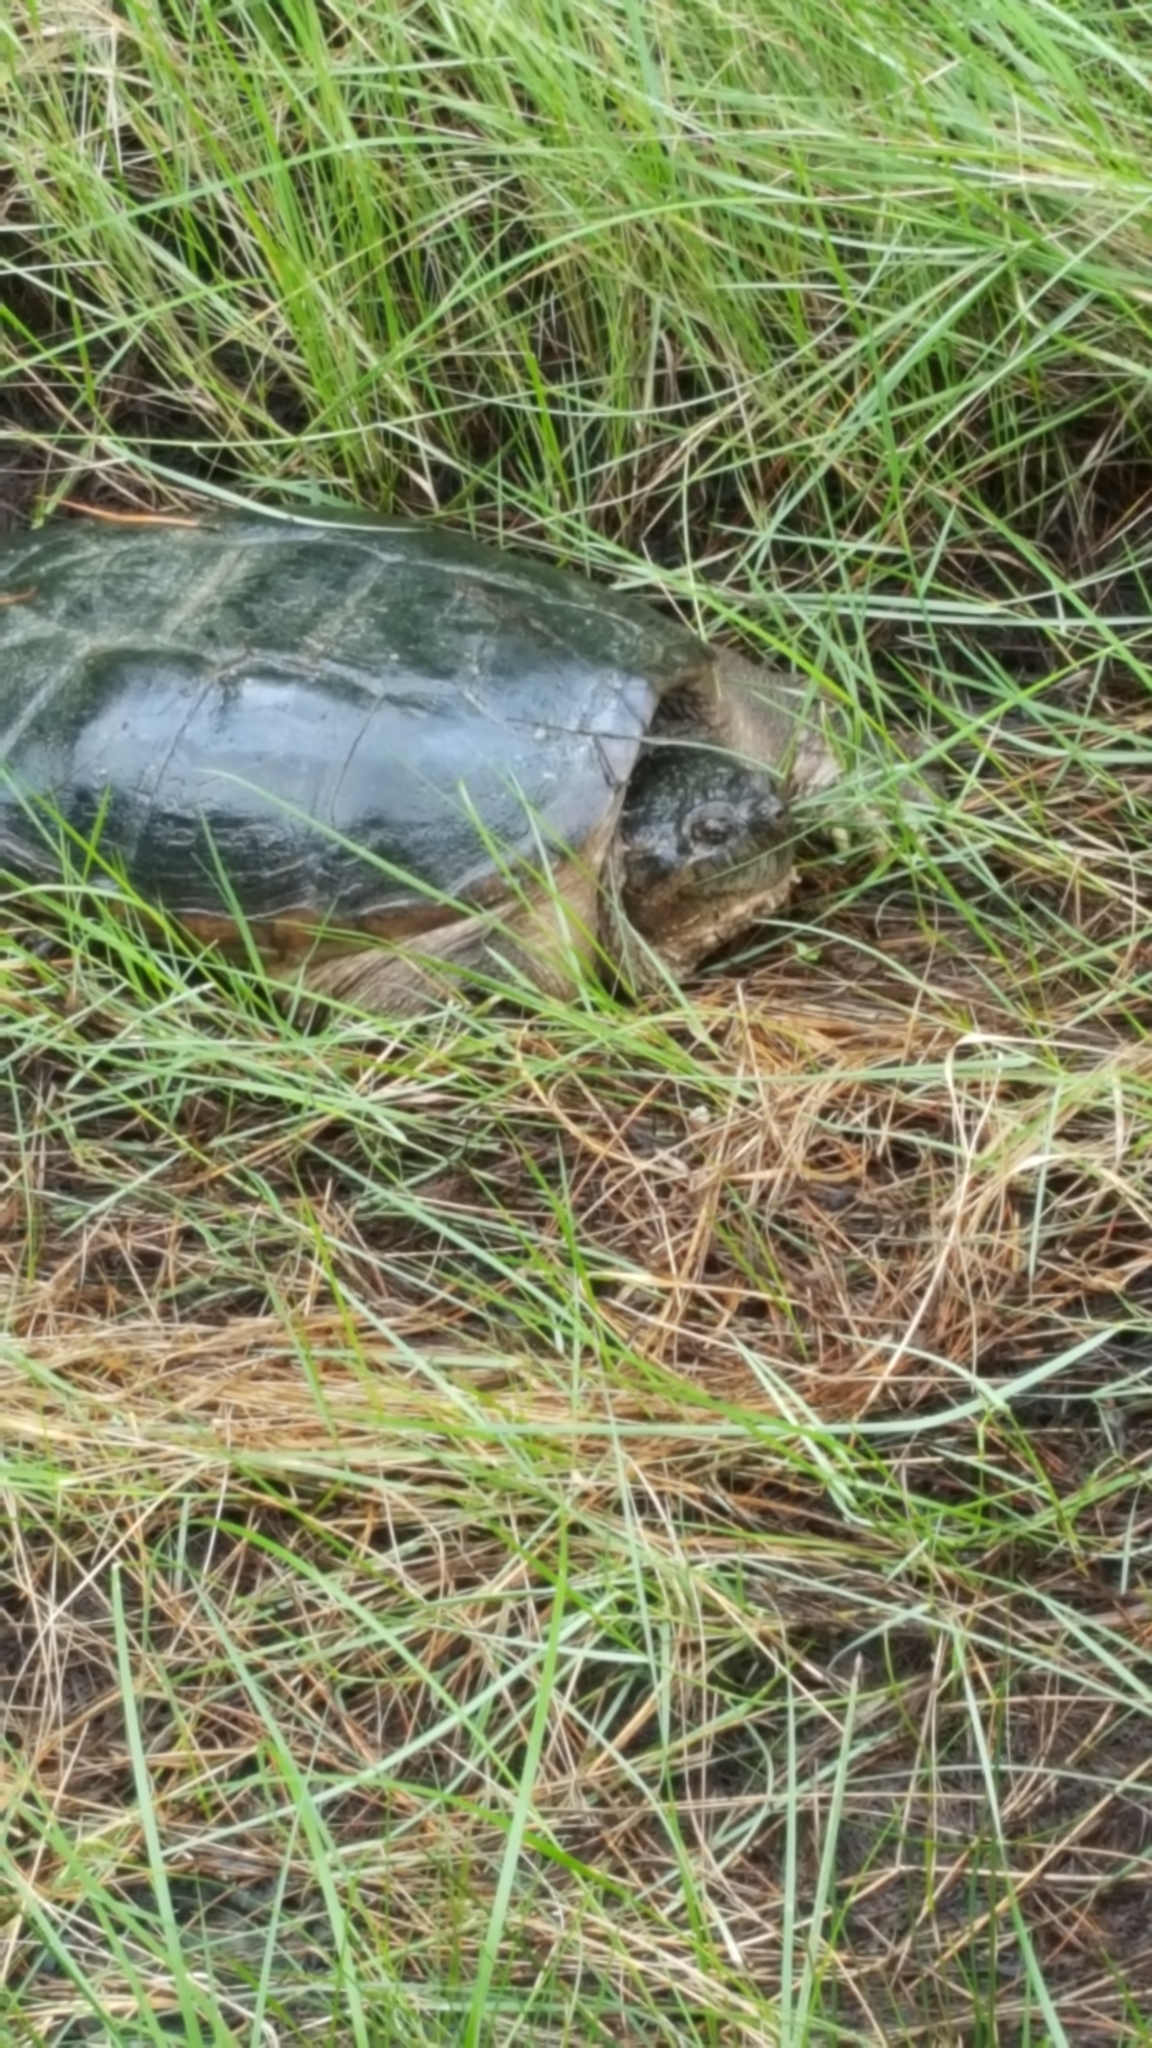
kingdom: Animalia
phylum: Chordata
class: Testudines
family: Chelydridae
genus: Chelydra
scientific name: Chelydra serpentina
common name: Common snapping turtle
